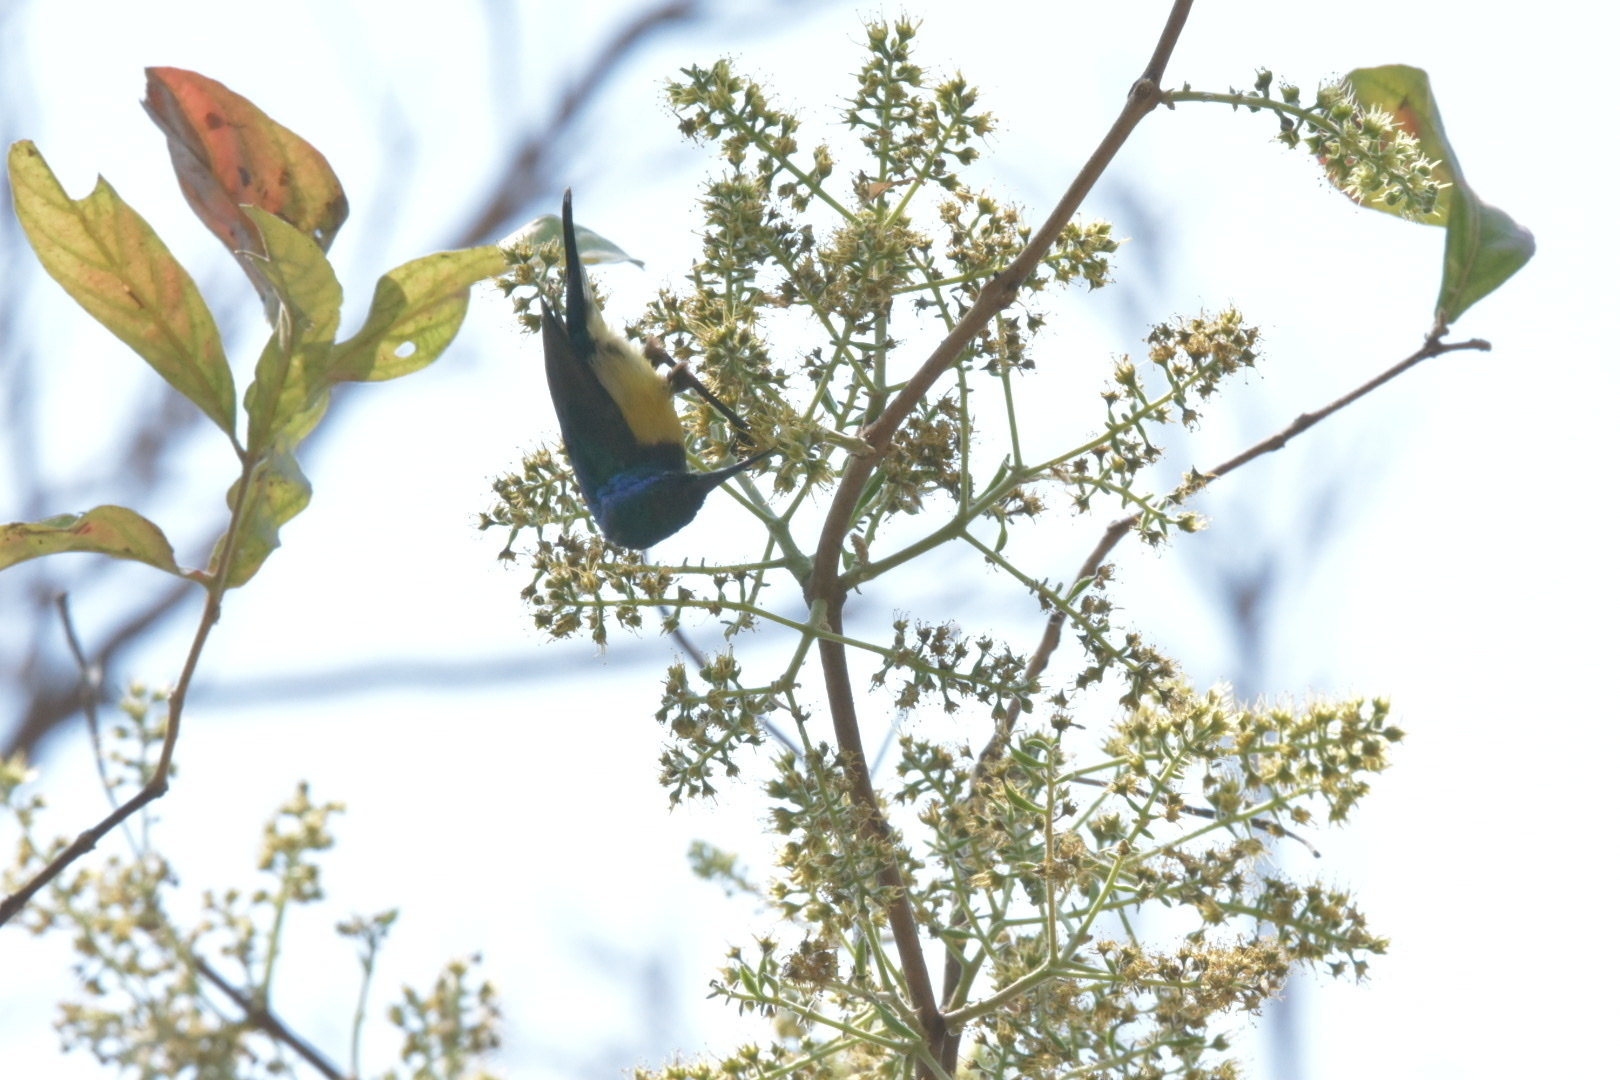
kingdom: Animalia
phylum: Chordata
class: Aves
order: Passeriformes
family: Nectariniidae
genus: Cinnyris
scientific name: Cinnyris venustus
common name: Variable sunbird
